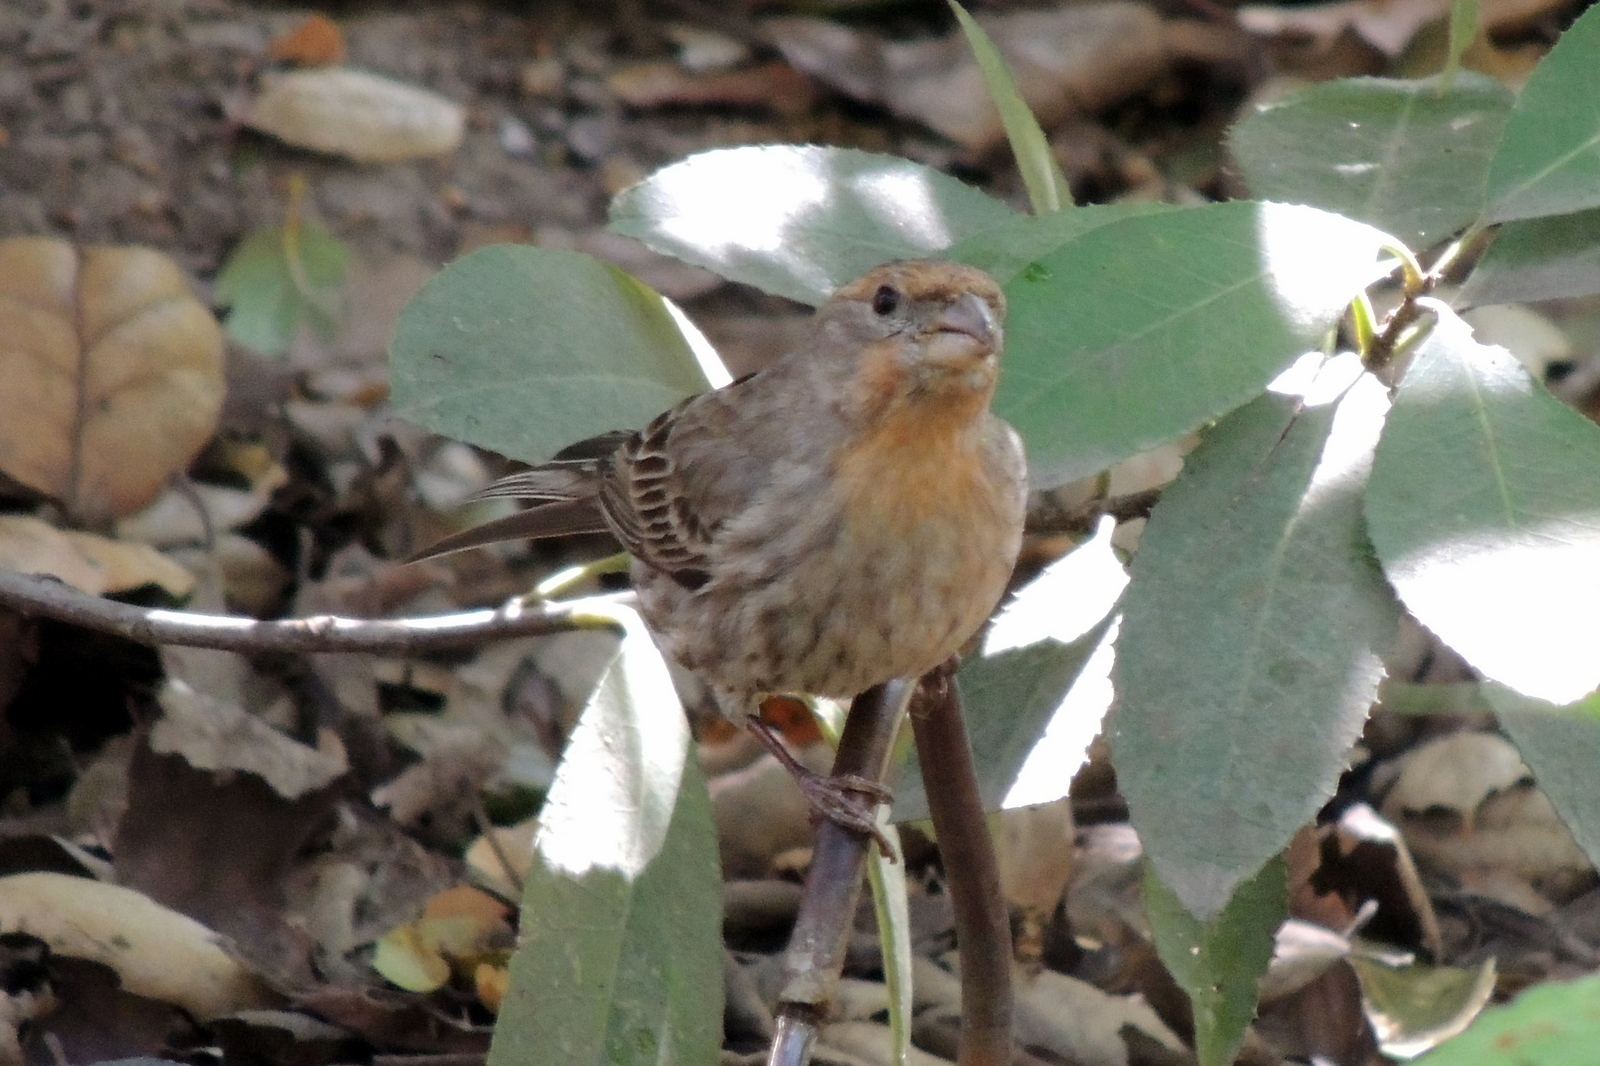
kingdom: Animalia
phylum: Chordata
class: Aves
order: Passeriformes
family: Fringillidae
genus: Haemorhous
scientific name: Haemorhous mexicanus
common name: House finch
